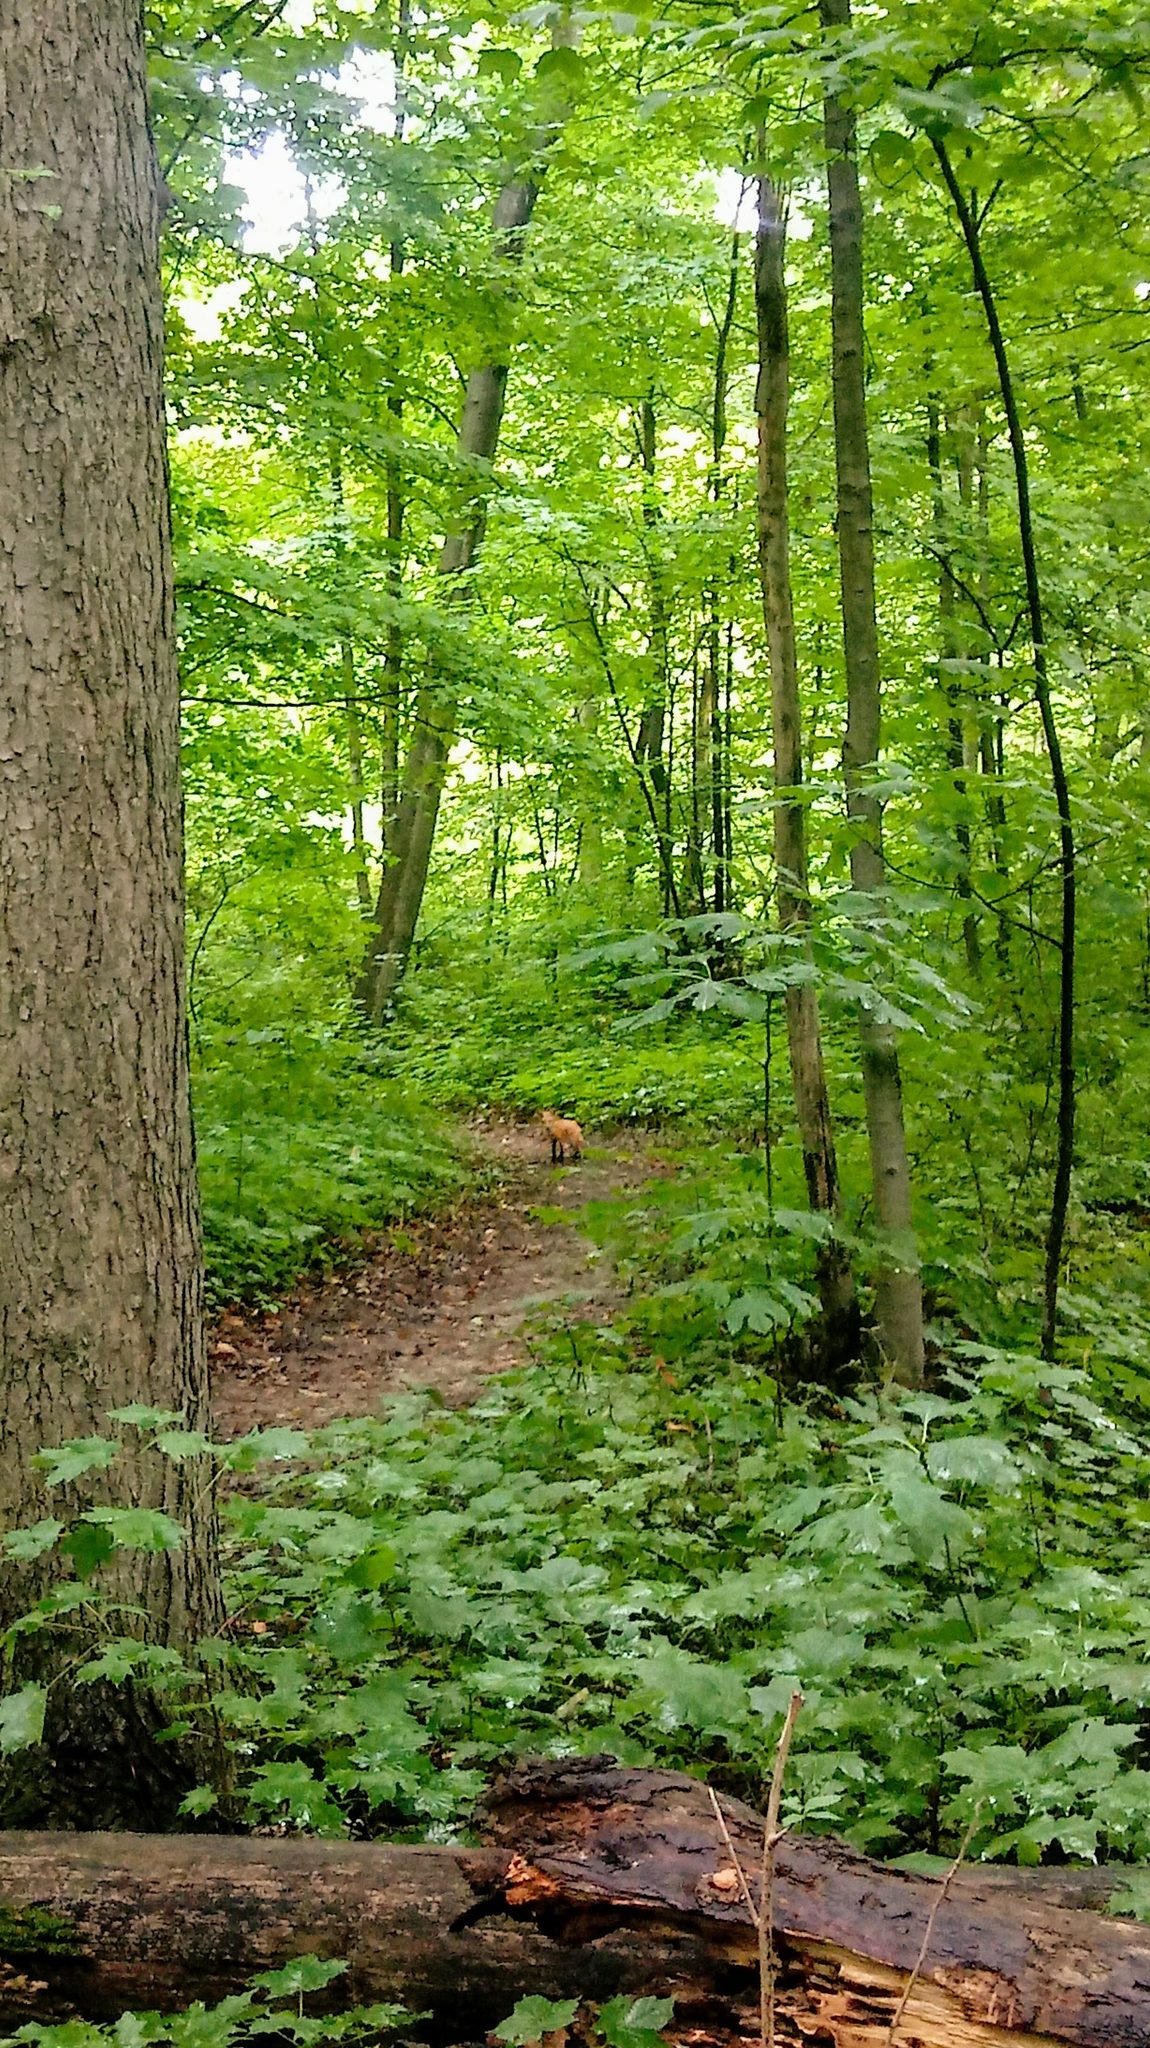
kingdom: Animalia
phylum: Chordata
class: Mammalia
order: Carnivora
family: Canidae
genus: Vulpes
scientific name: Vulpes vulpes
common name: Red fox
